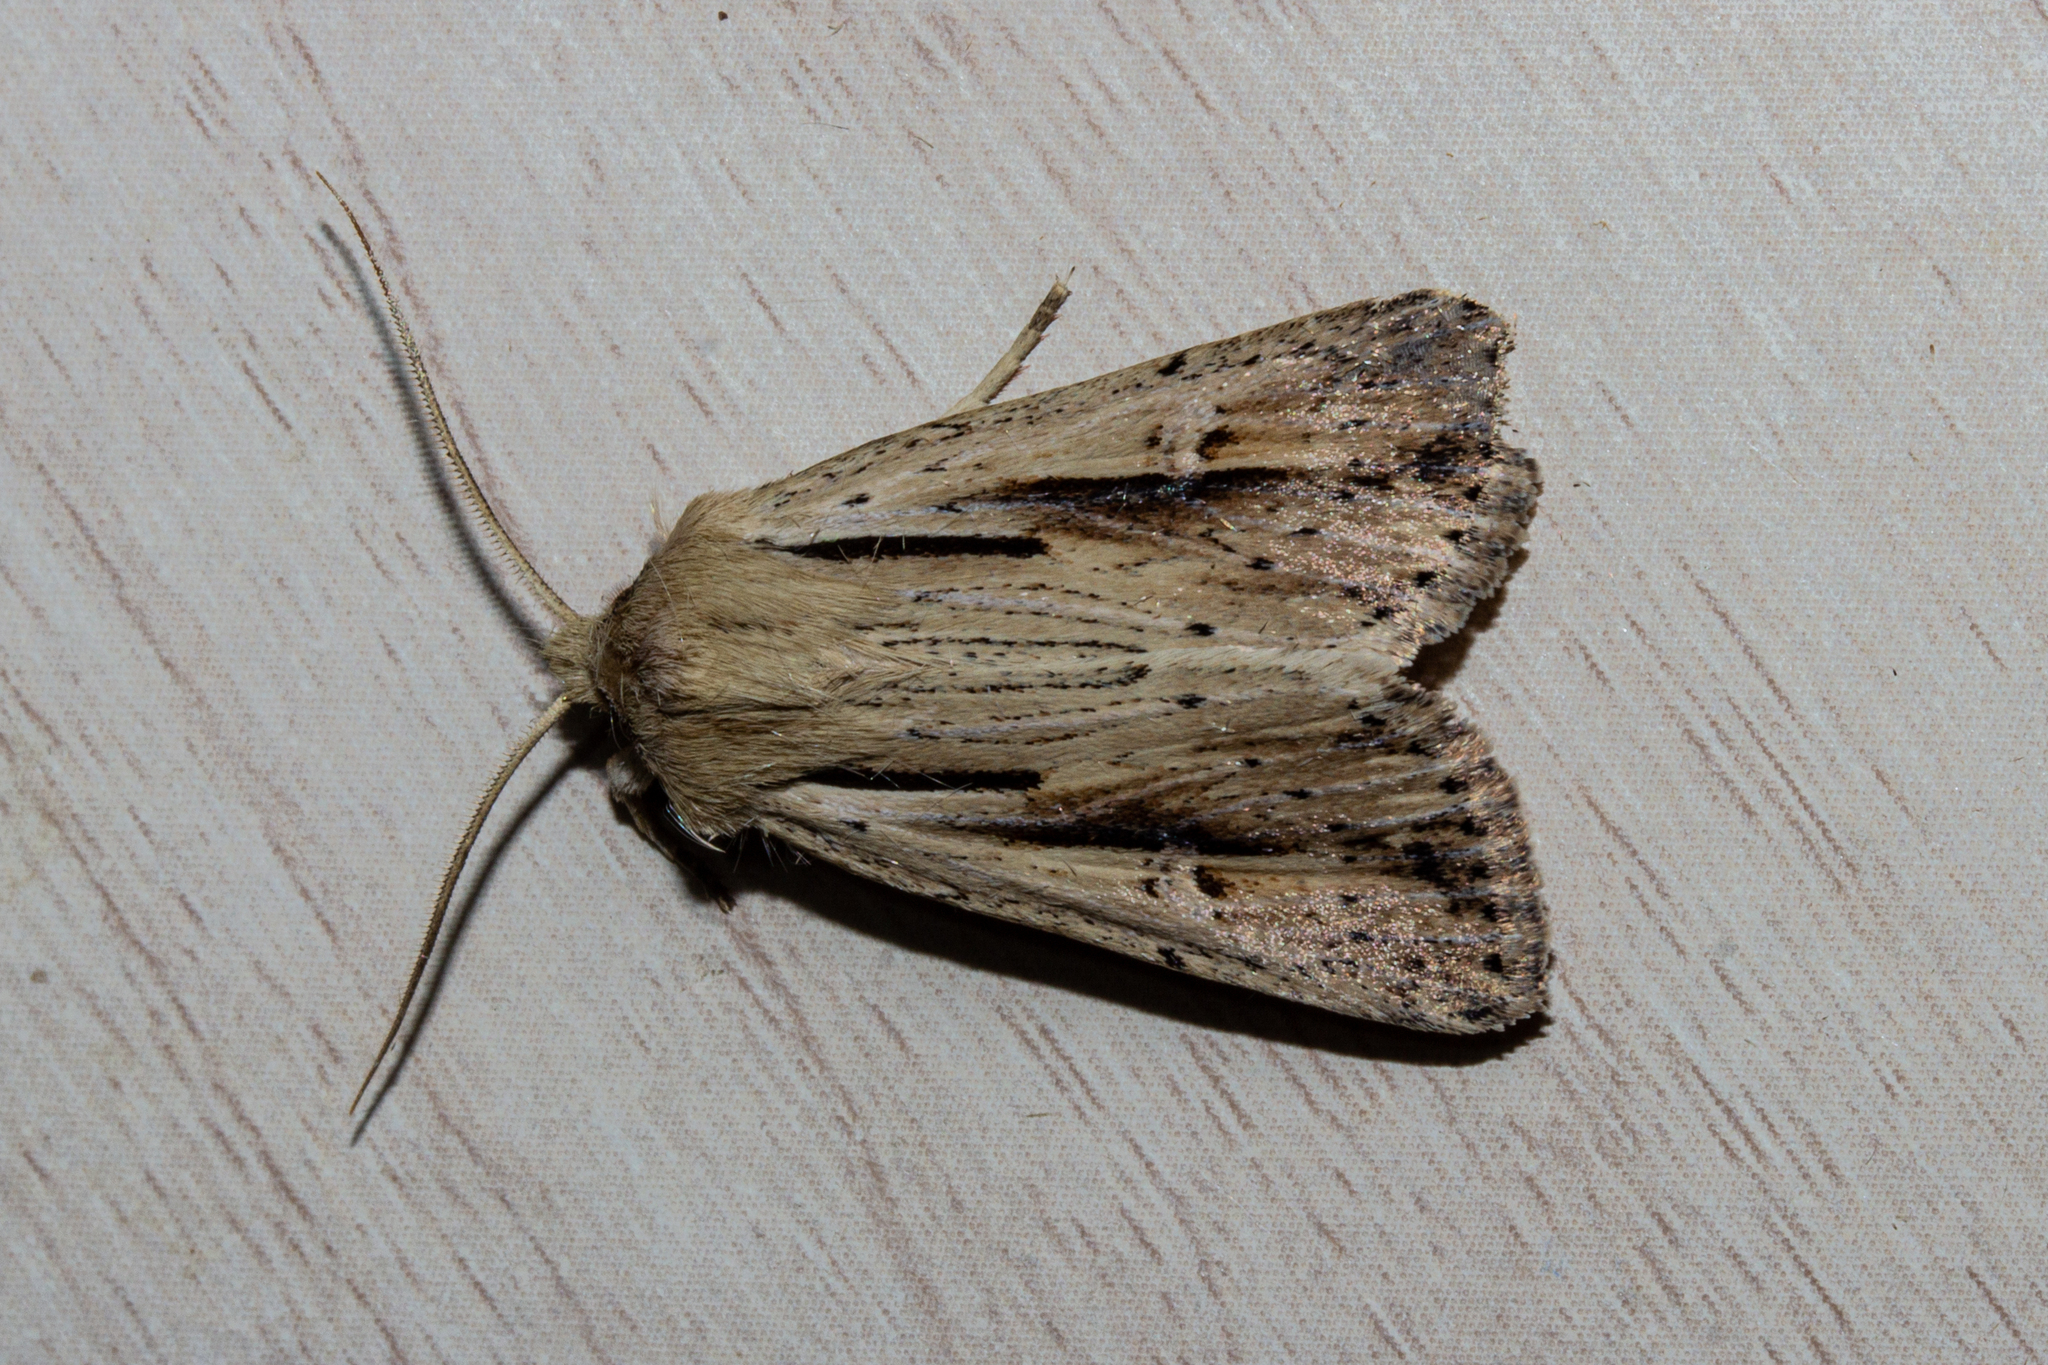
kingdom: Animalia
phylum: Arthropoda
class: Insecta
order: Lepidoptera
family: Noctuidae
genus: Ichneutica
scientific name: Ichneutica propria
